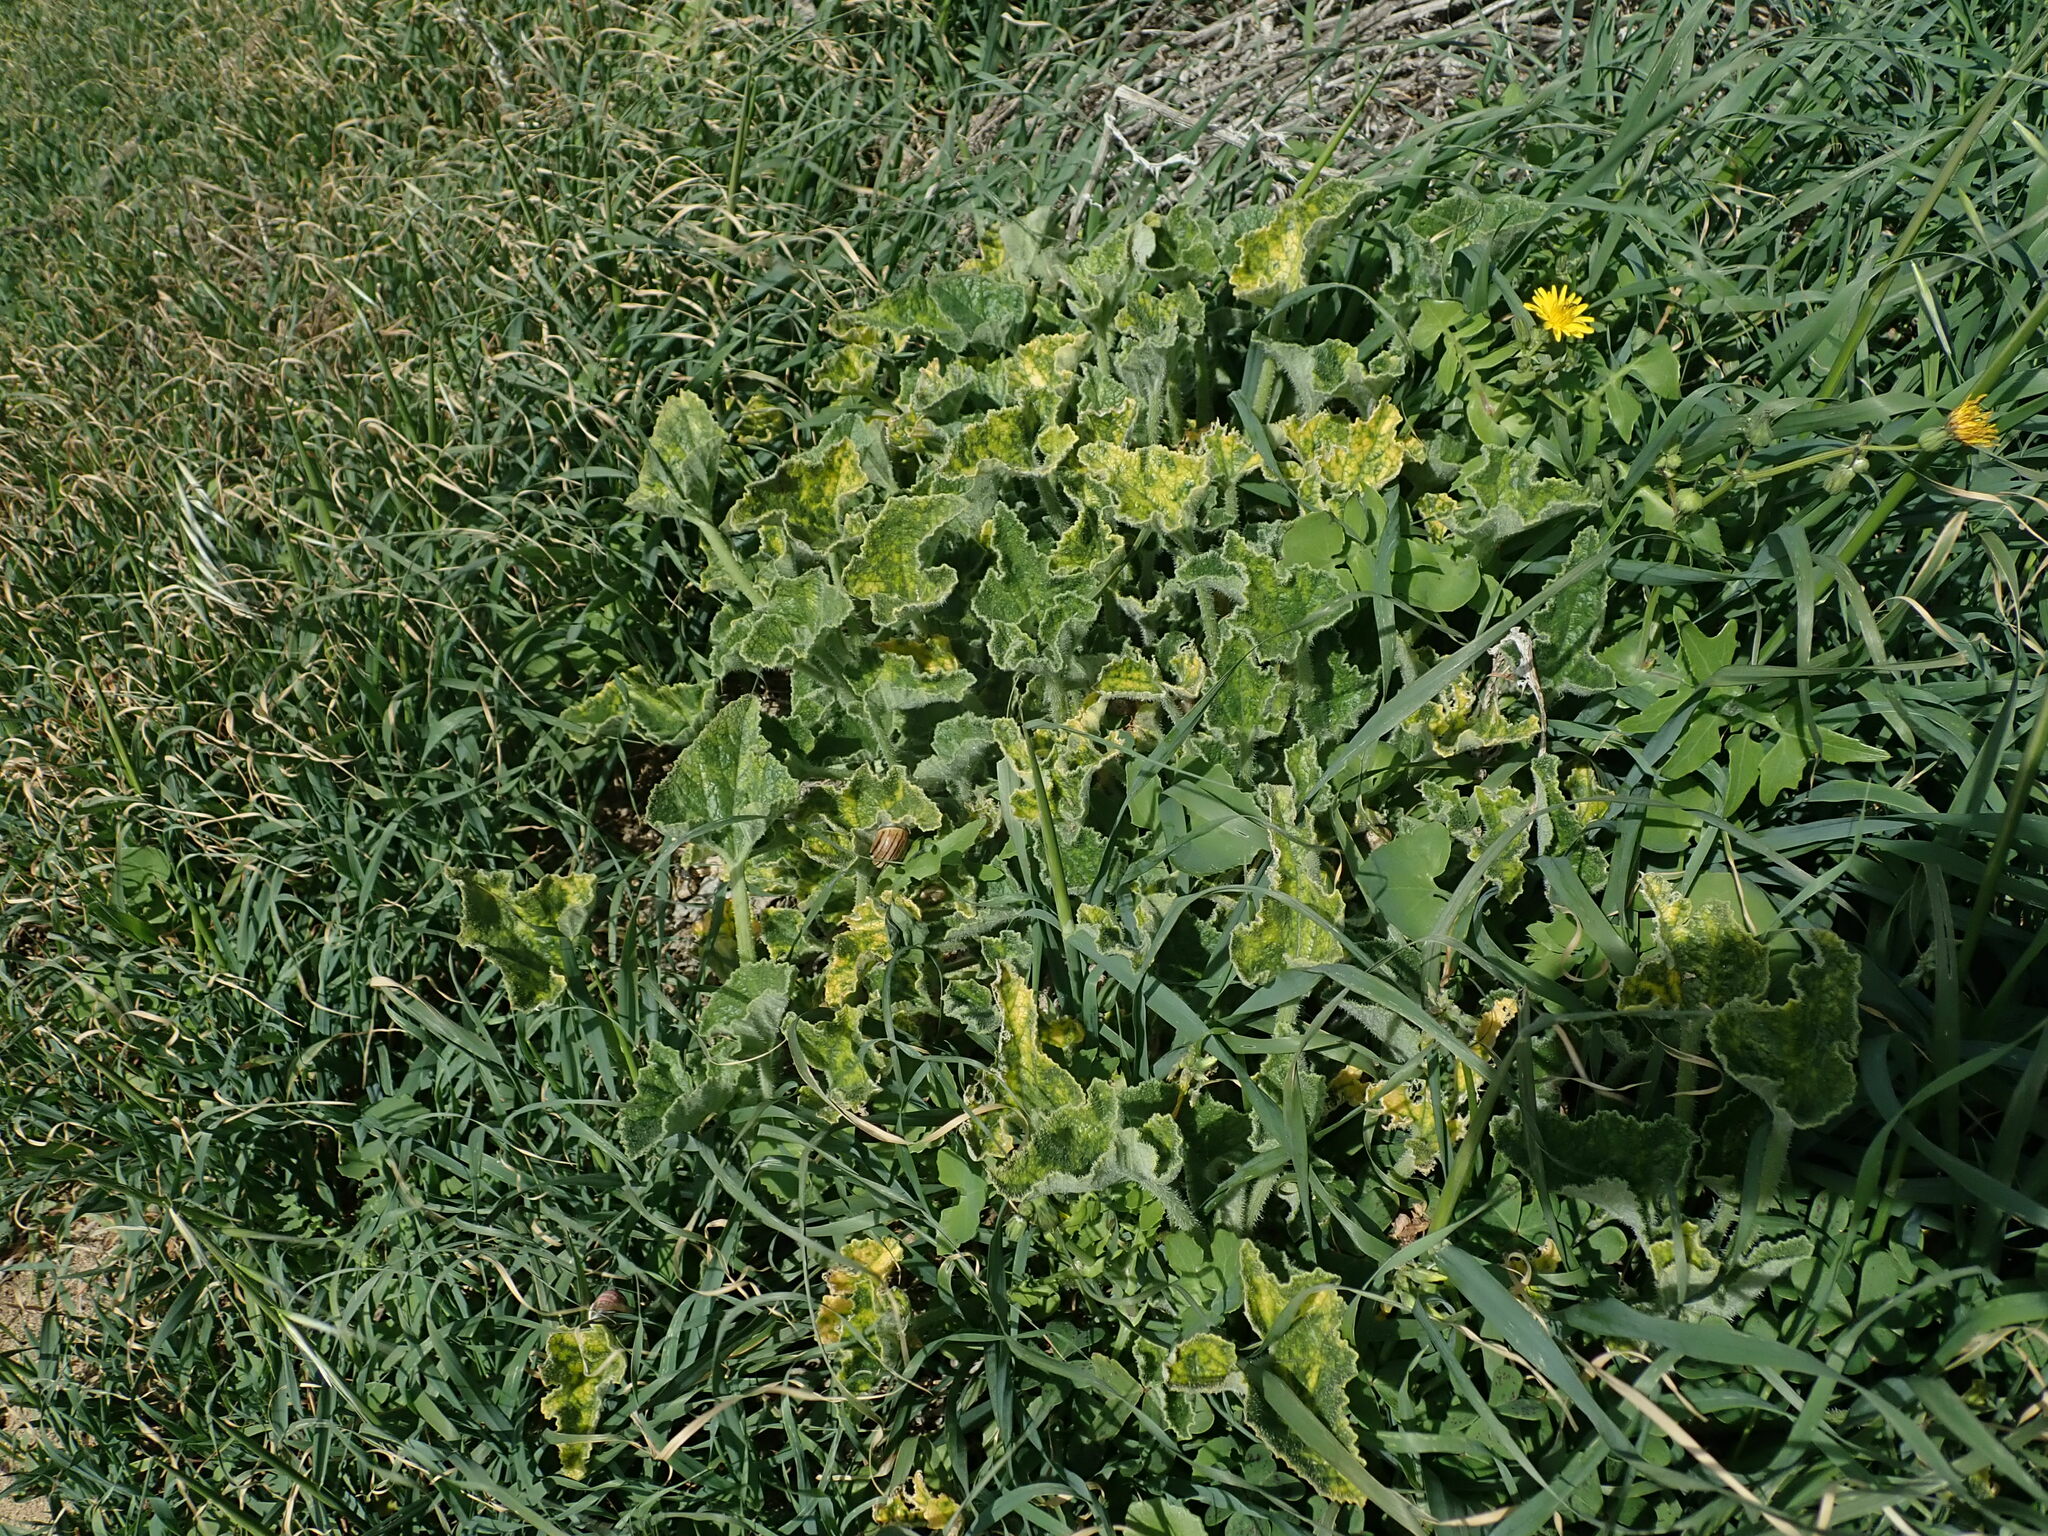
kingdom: Plantae
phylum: Tracheophyta
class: Magnoliopsida
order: Cucurbitales
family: Cucurbitaceae
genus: Ecballium
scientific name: Ecballium elaterium
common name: Squirting cucumber
